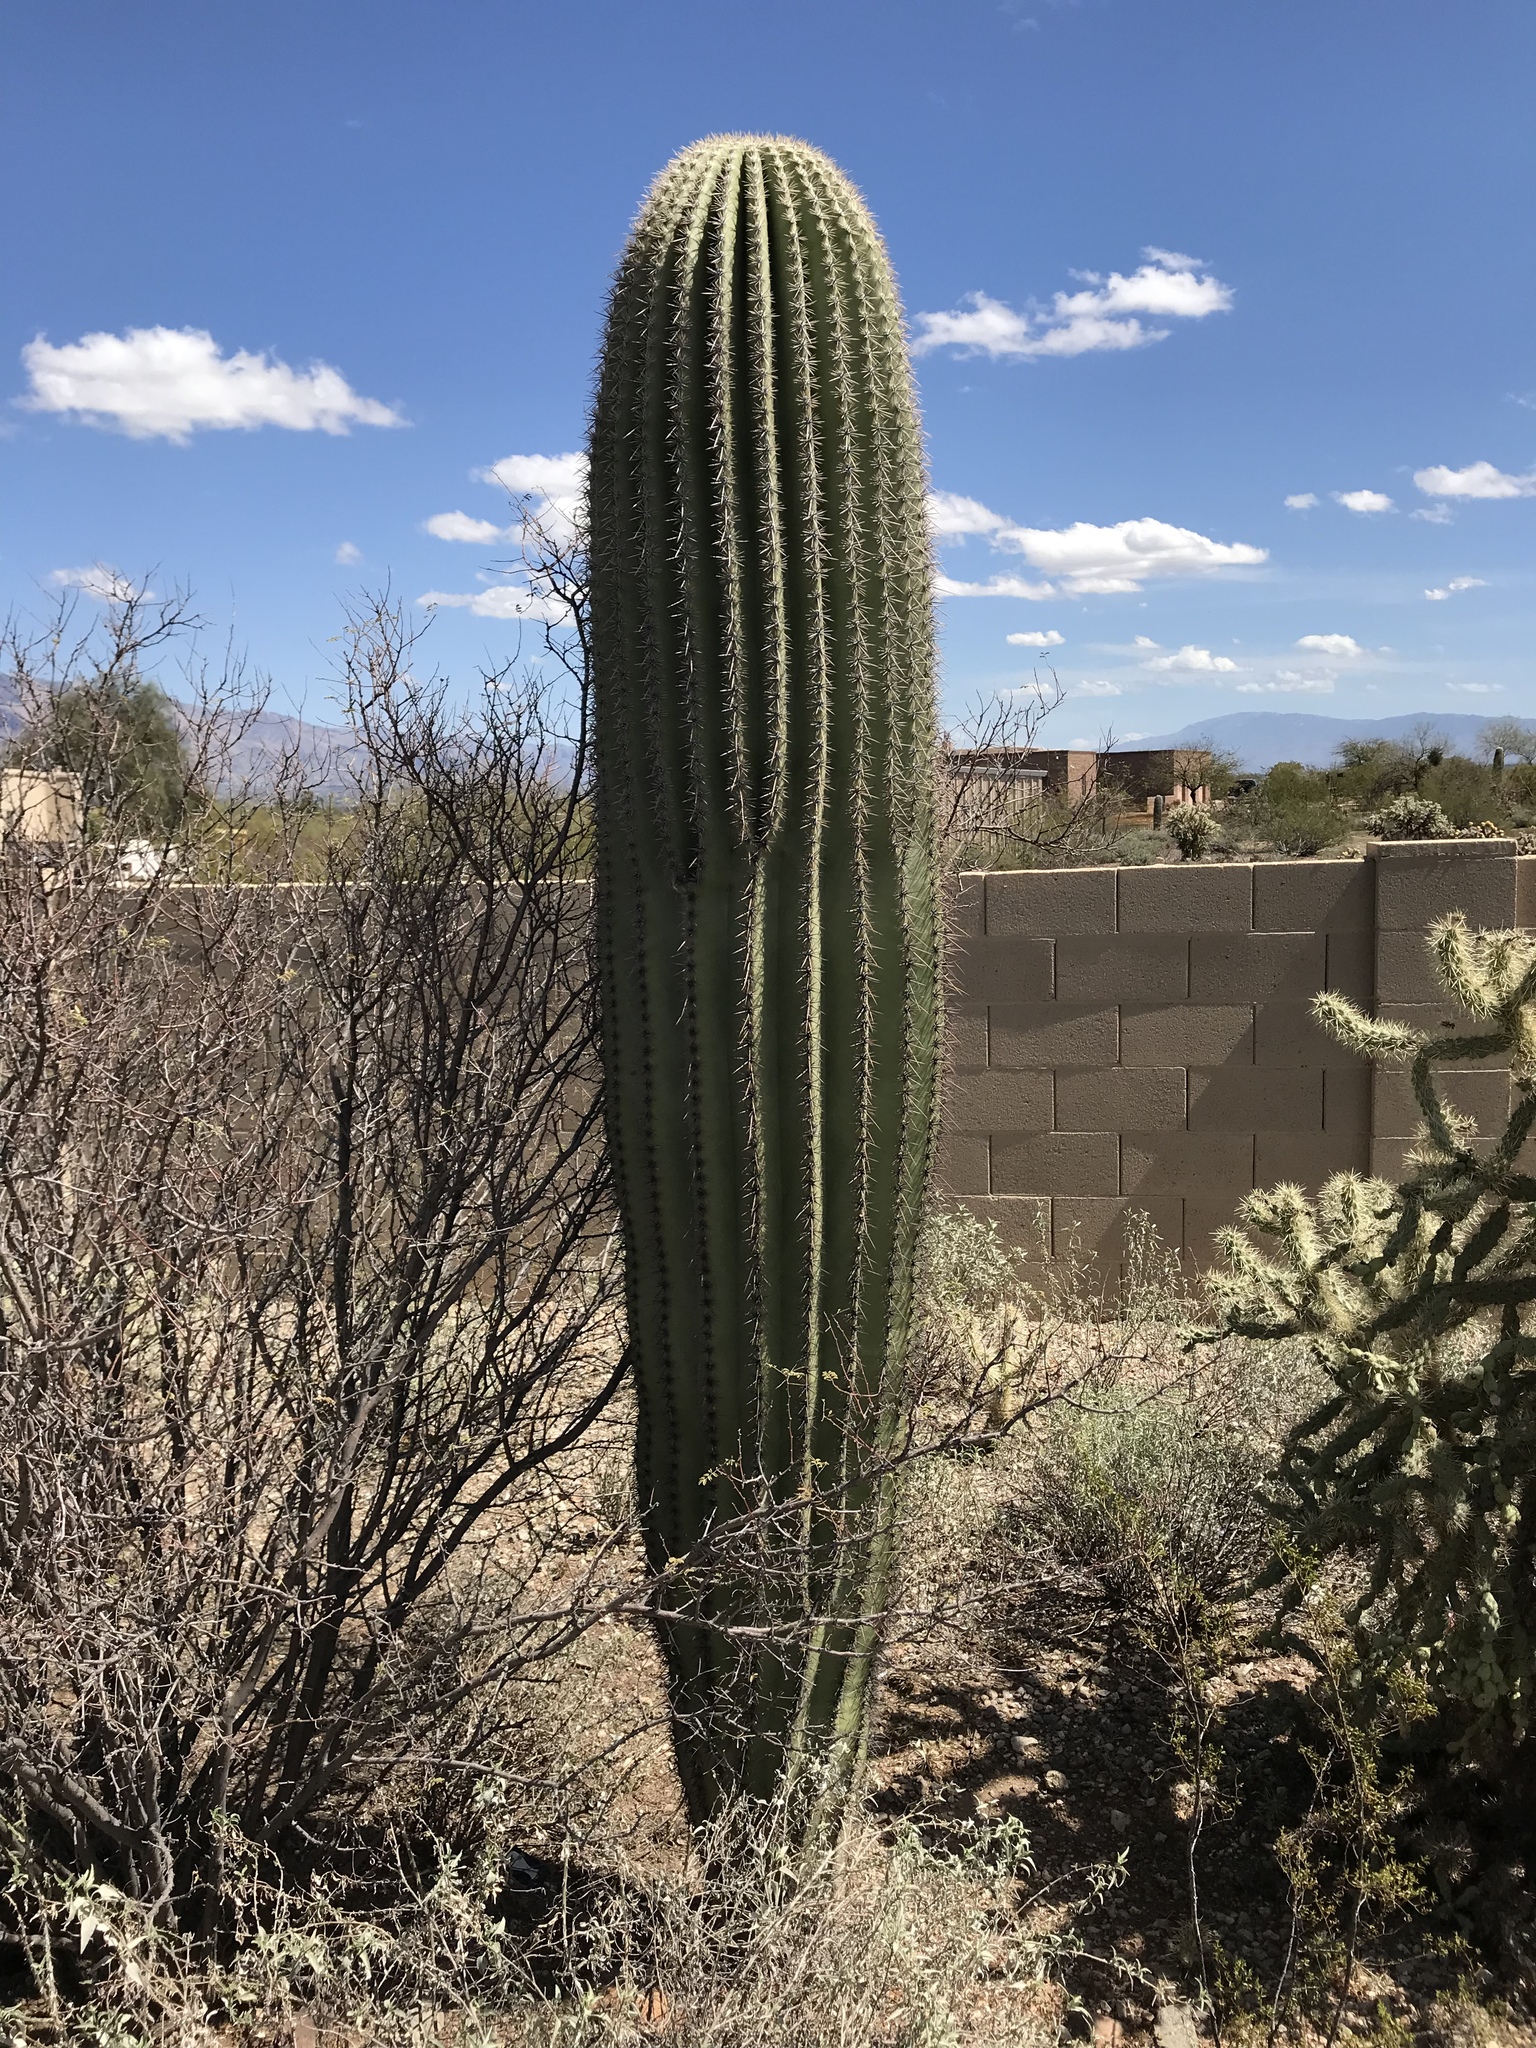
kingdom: Plantae
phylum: Tracheophyta
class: Magnoliopsida
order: Caryophyllales
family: Cactaceae
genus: Carnegiea
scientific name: Carnegiea gigantea
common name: Saguaro
